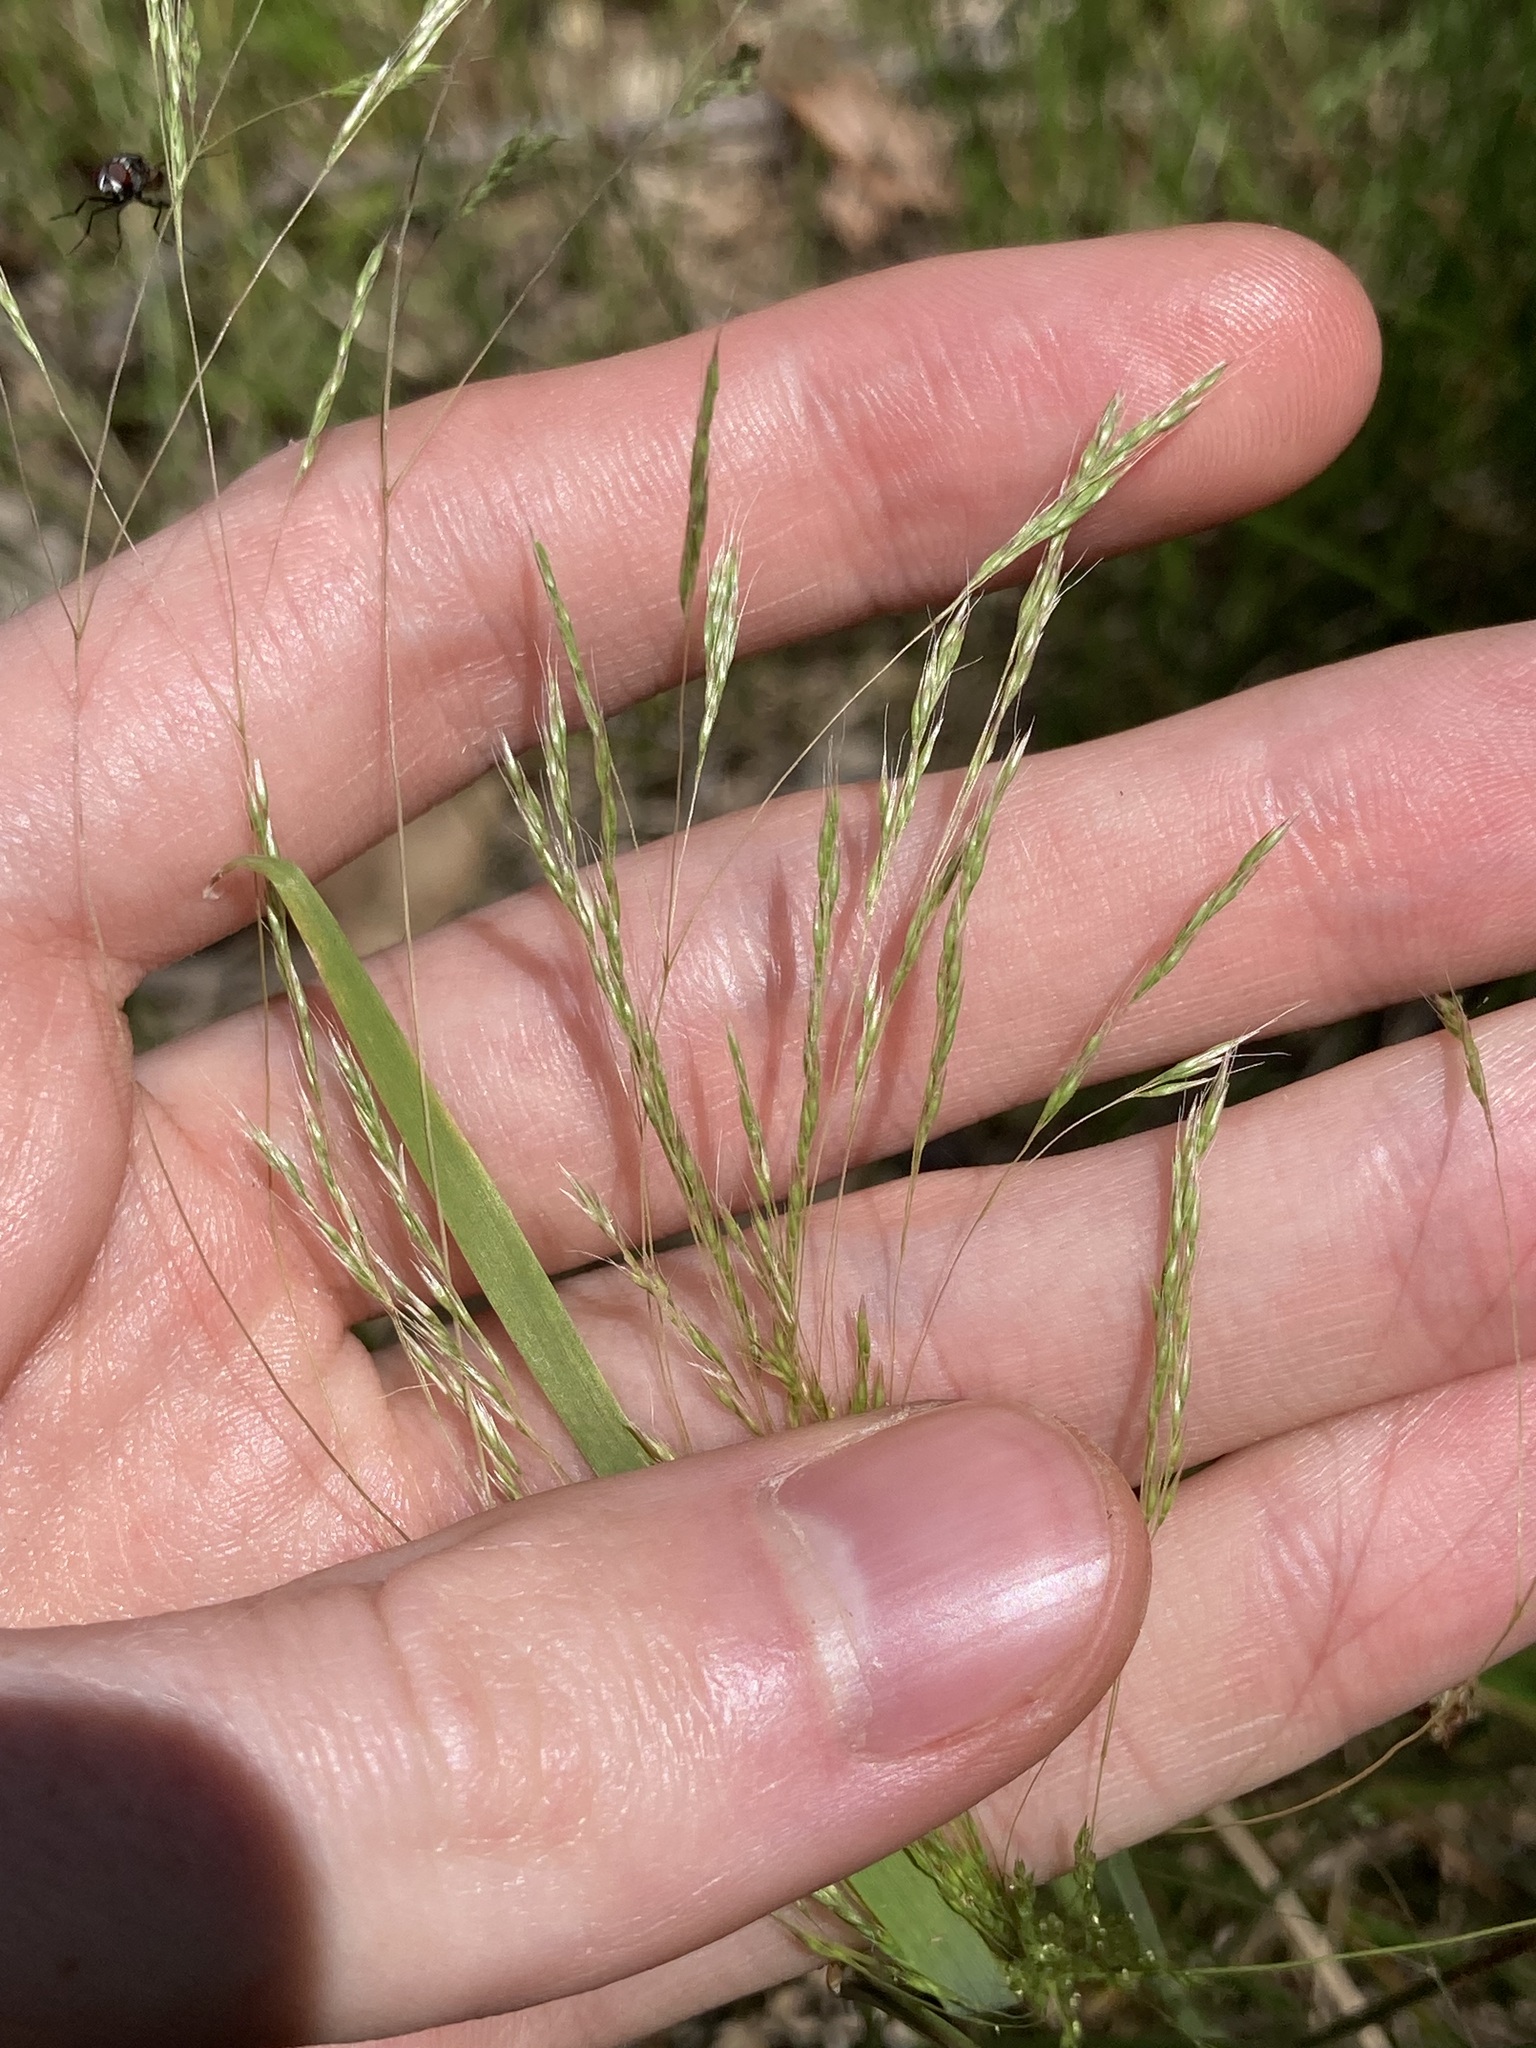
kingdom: Plantae
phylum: Tracheophyta
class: Liliopsida
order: Poales
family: Poaceae
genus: Lachnagrostis
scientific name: Lachnagrostis filiformis
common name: Bentgrass
